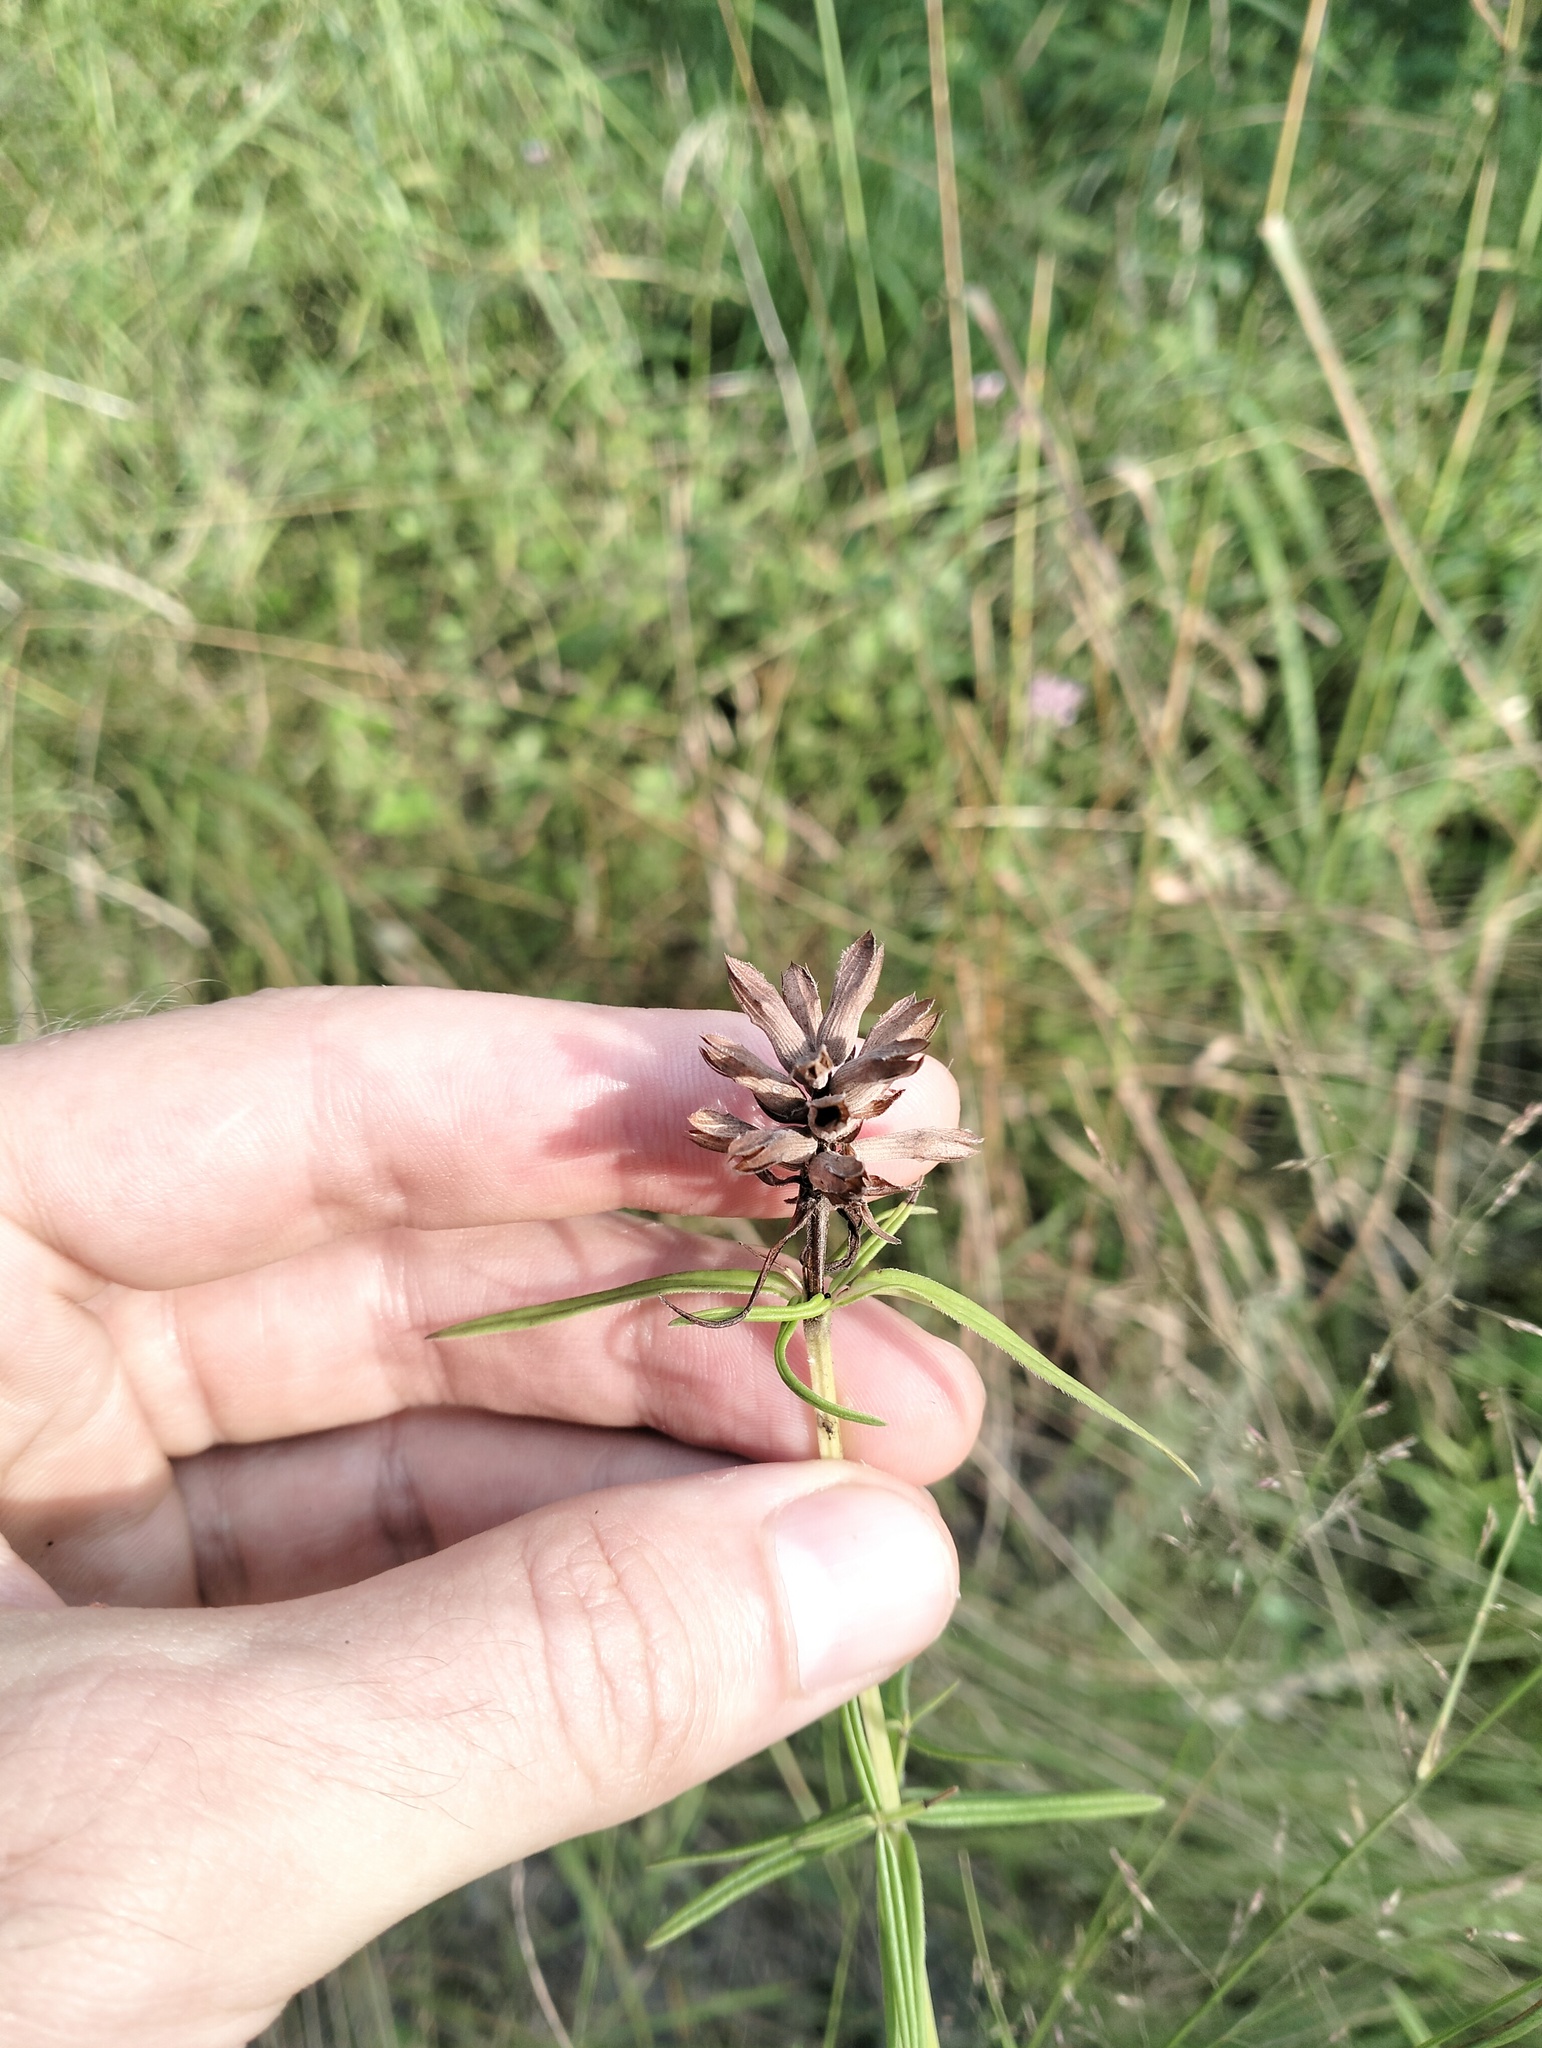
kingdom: Plantae
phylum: Tracheophyta
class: Magnoliopsida
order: Lamiales
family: Lamiaceae
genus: Dracocephalum
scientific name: Dracocephalum ruyschiana
